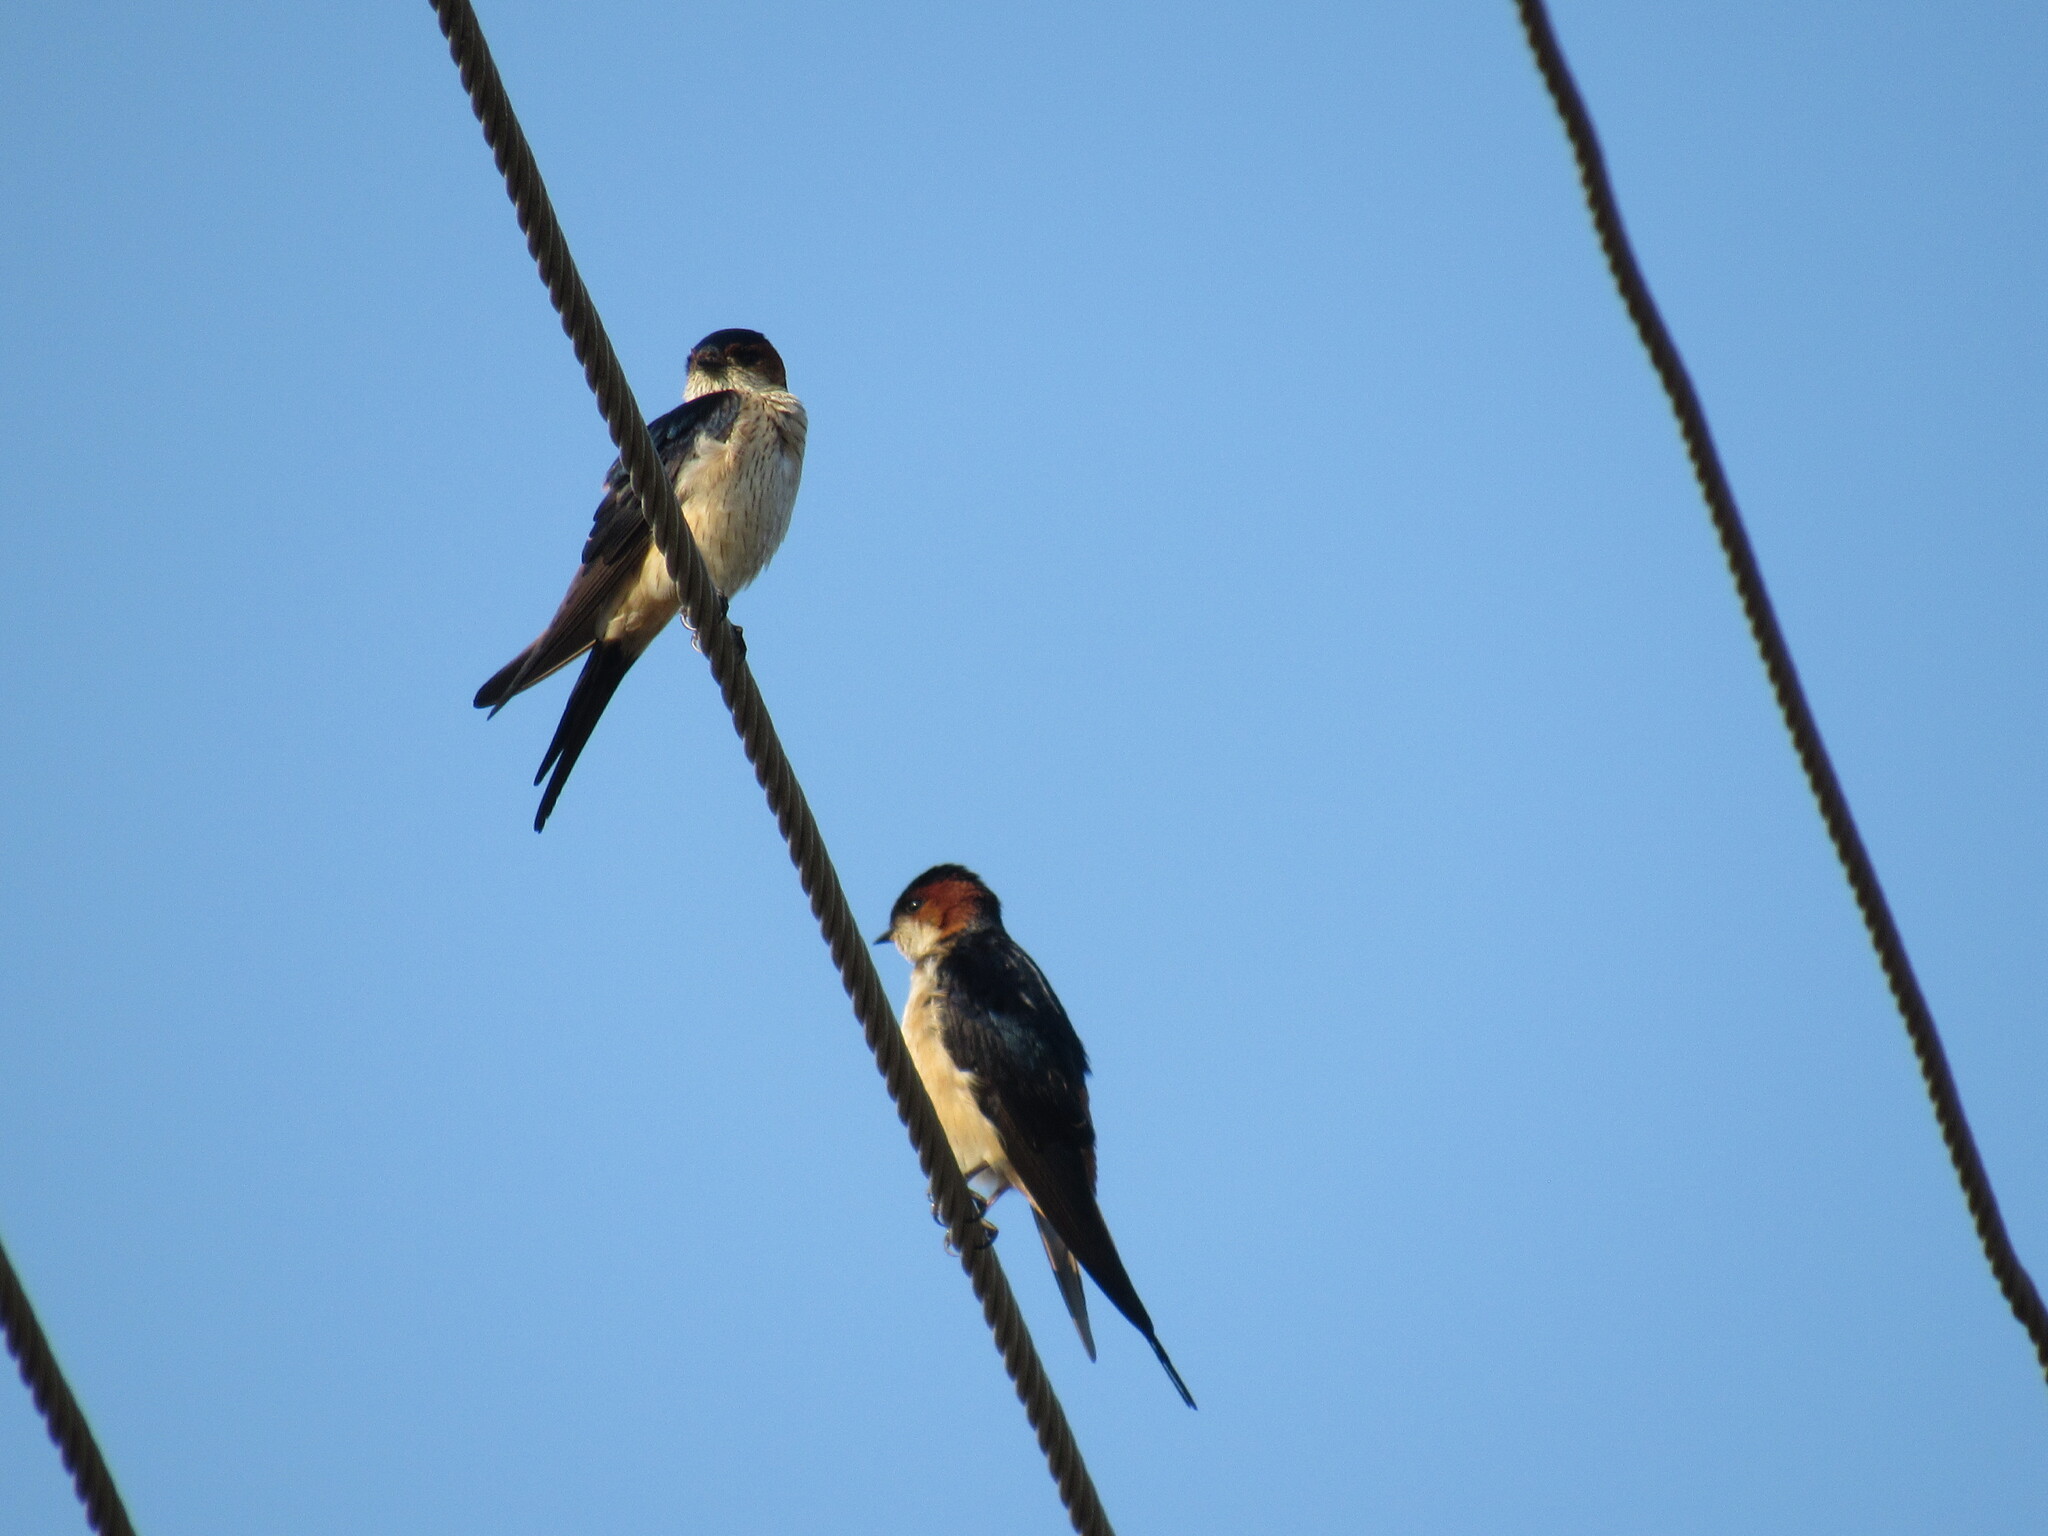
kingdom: Animalia
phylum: Chordata
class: Aves
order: Passeriformes
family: Hirundinidae
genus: Hirundo
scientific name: Hirundo rustica
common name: Barn swallow
